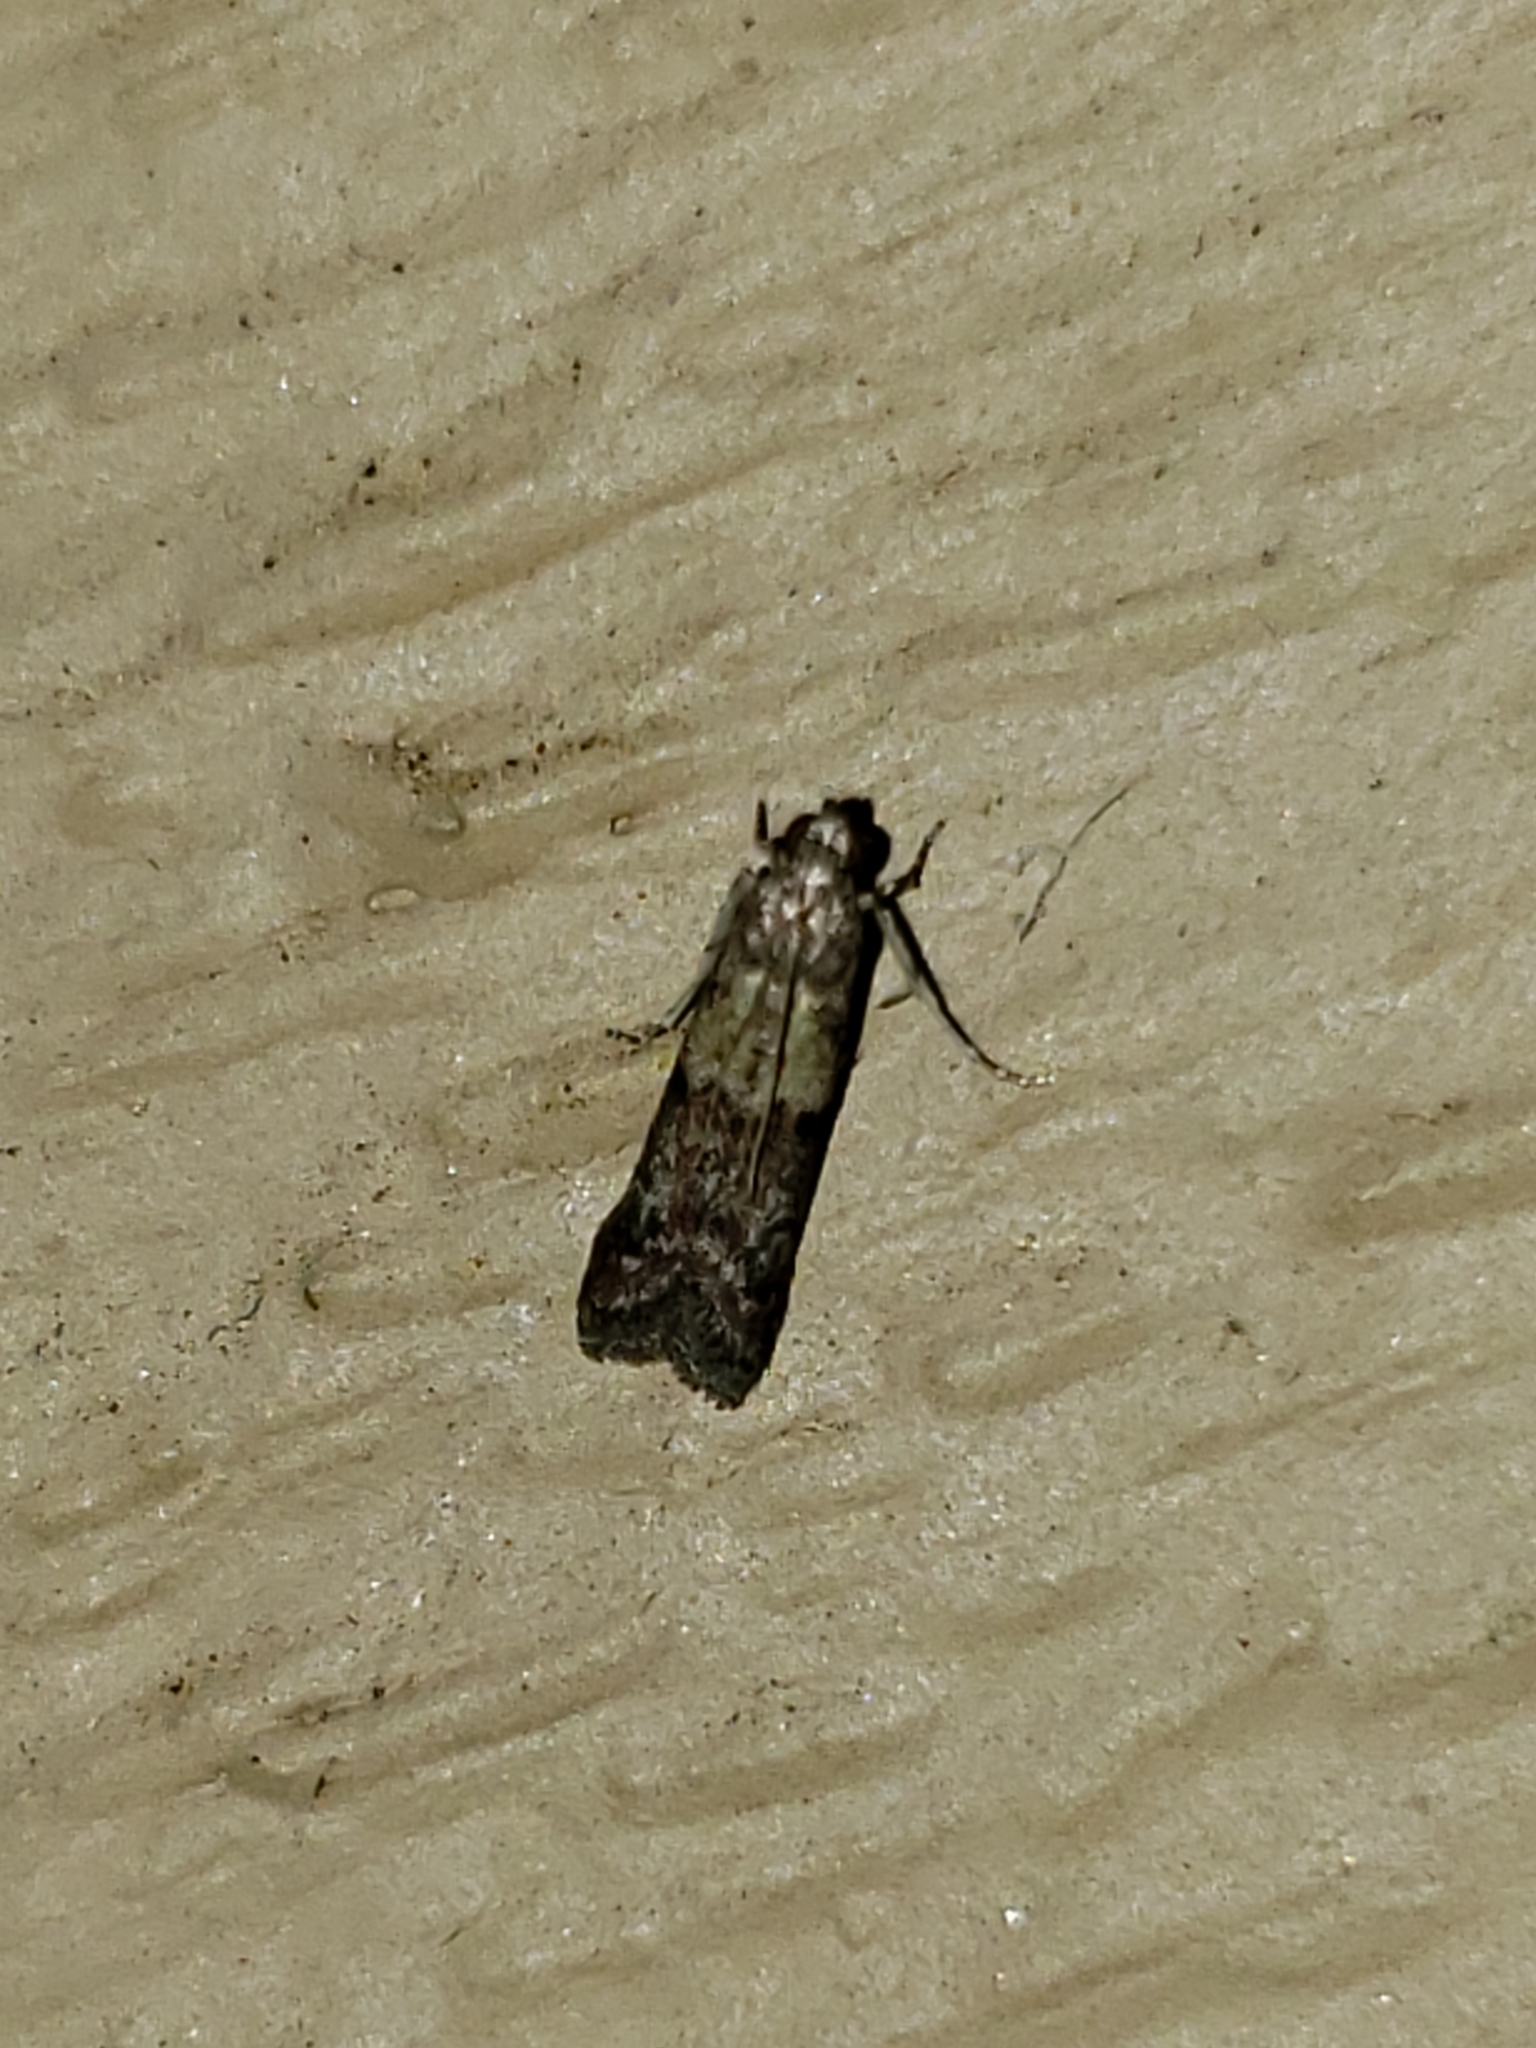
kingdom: Animalia
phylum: Arthropoda
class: Insecta
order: Lepidoptera
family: Pyralidae
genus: Ephestiodes
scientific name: Ephestiodes infimella
